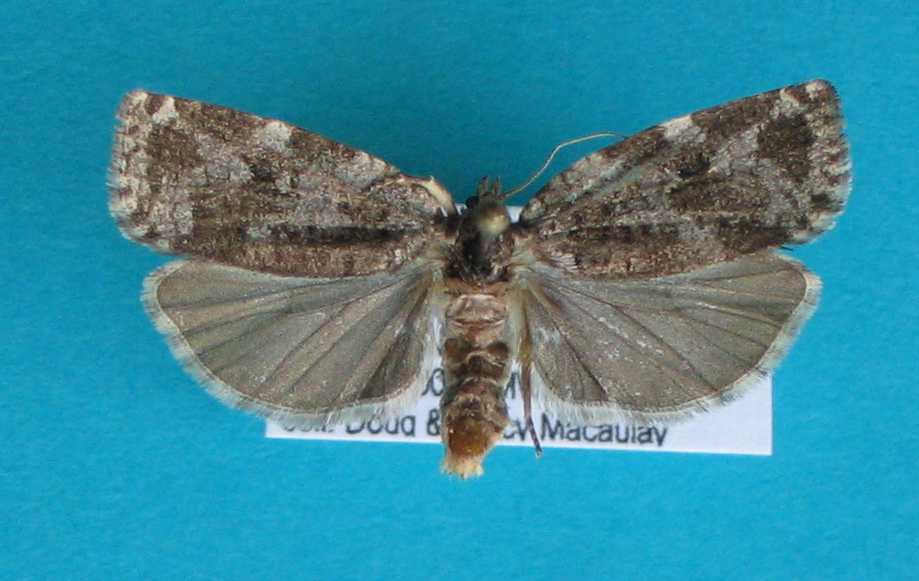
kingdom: Animalia
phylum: Arthropoda
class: Insecta
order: Lepidoptera
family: Tortricidae
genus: Choristoneura
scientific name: Choristoneura fumiferana
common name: Spruce budworm
